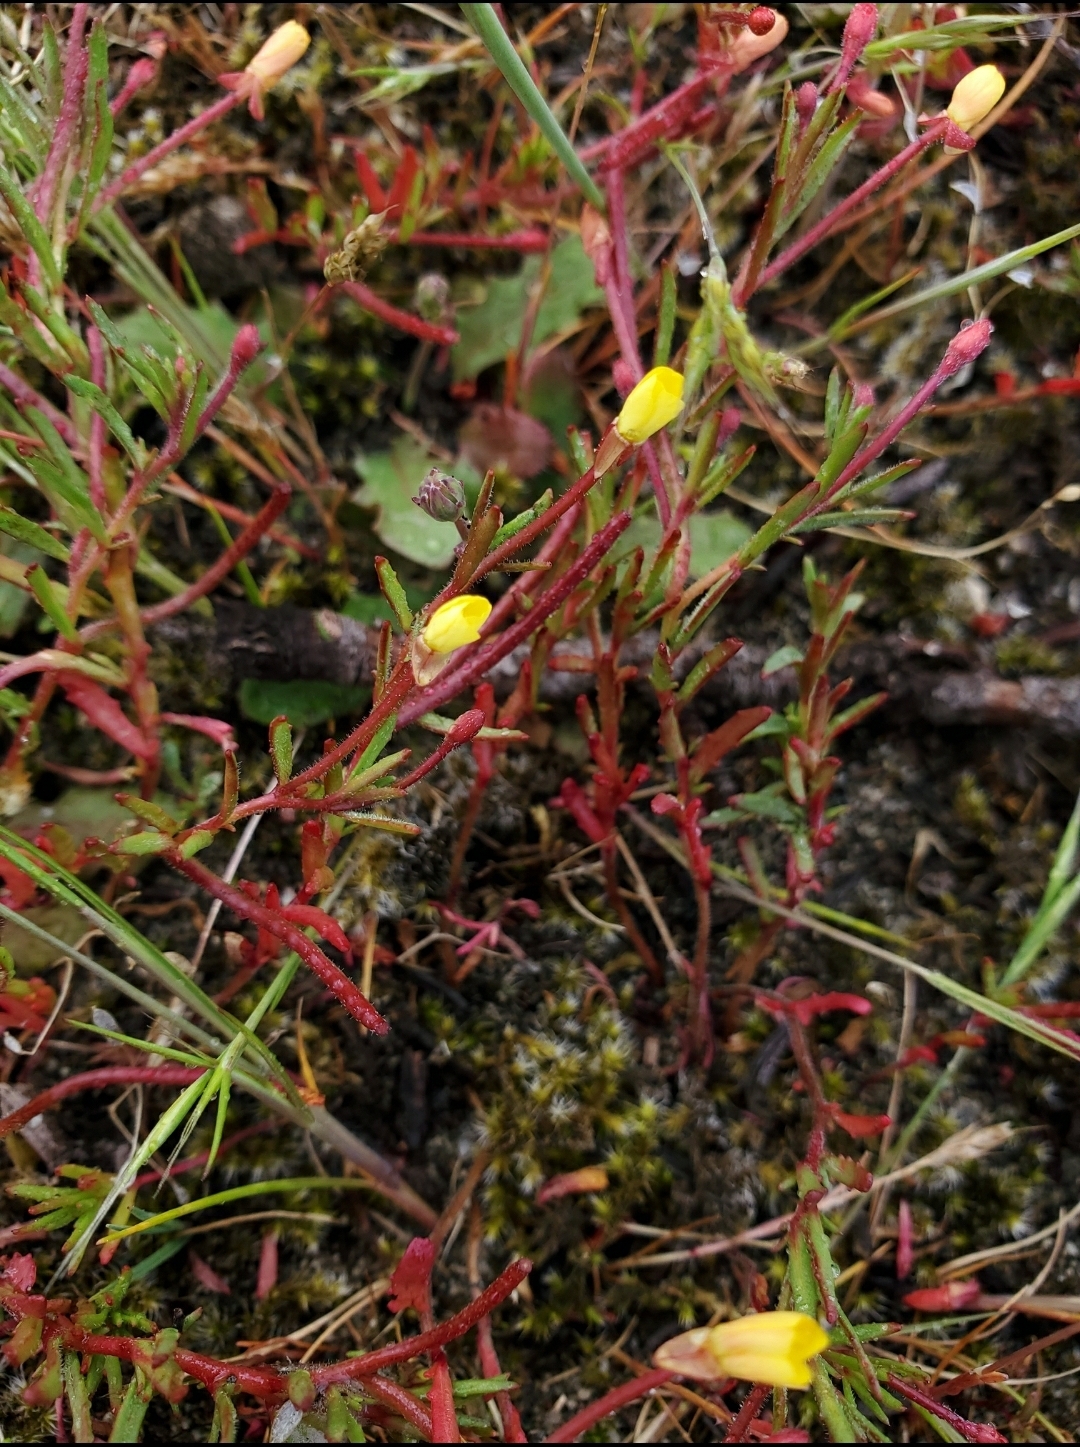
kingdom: Plantae
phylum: Tracheophyta
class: Magnoliopsida
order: Myrtales
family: Onagraceae
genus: Camissonia
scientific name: Camissonia contorta
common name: Contorted suncup
